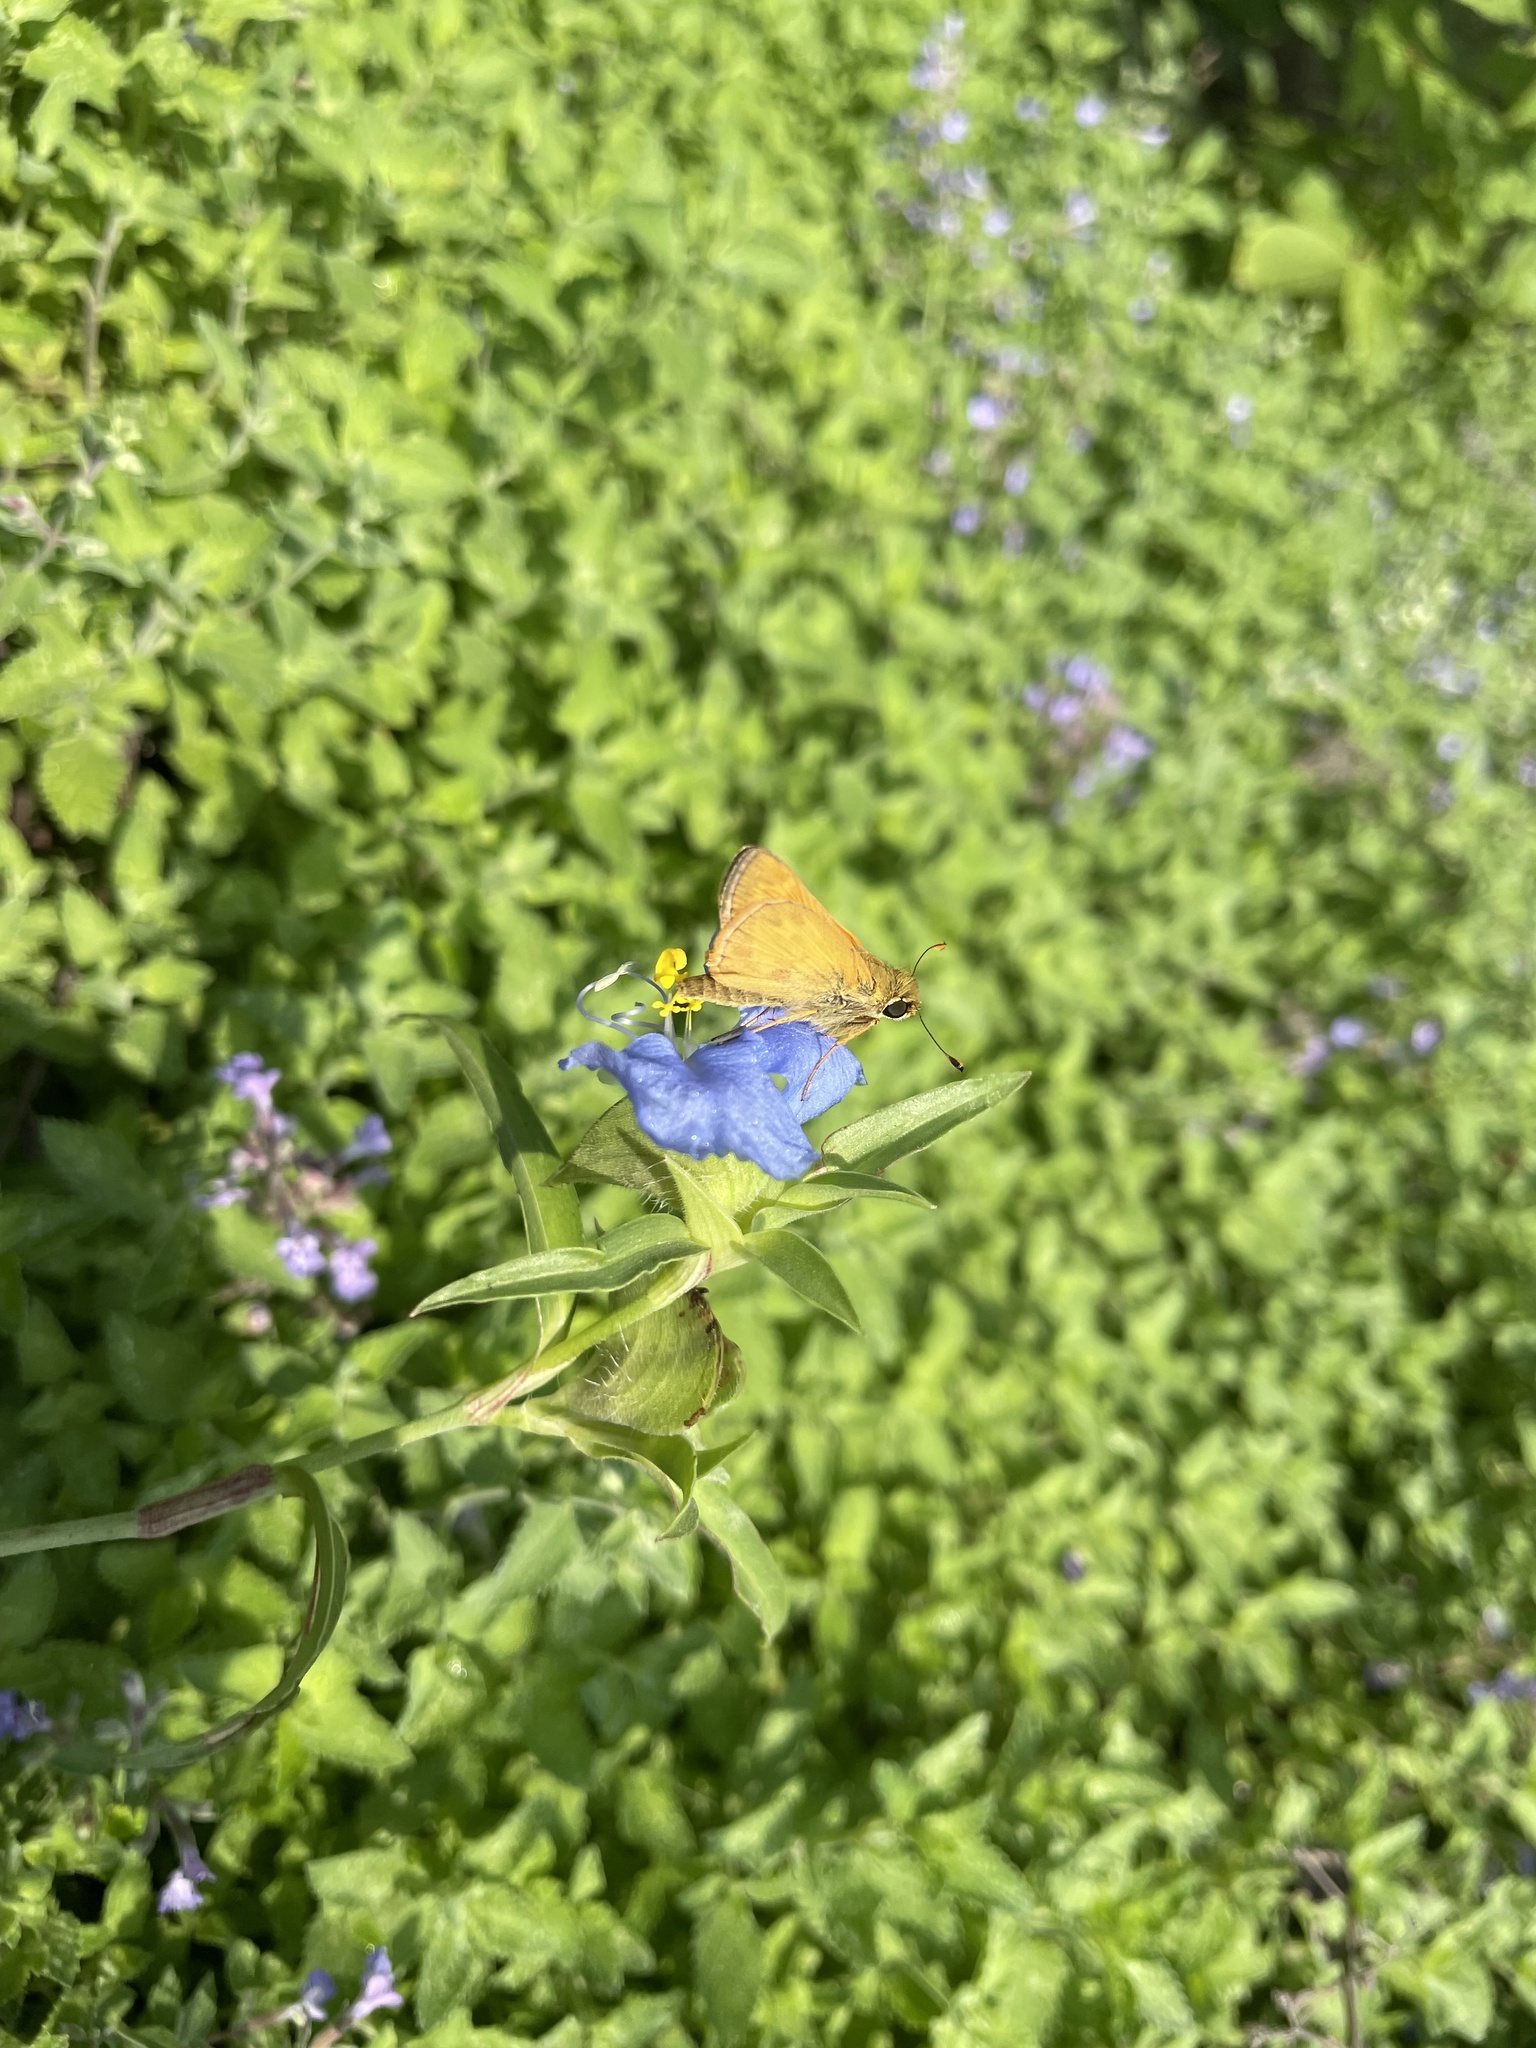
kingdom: Animalia
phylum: Arthropoda
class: Insecta
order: Lepidoptera
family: Hesperiidae
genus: Atalopedes
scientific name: Atalopedes
